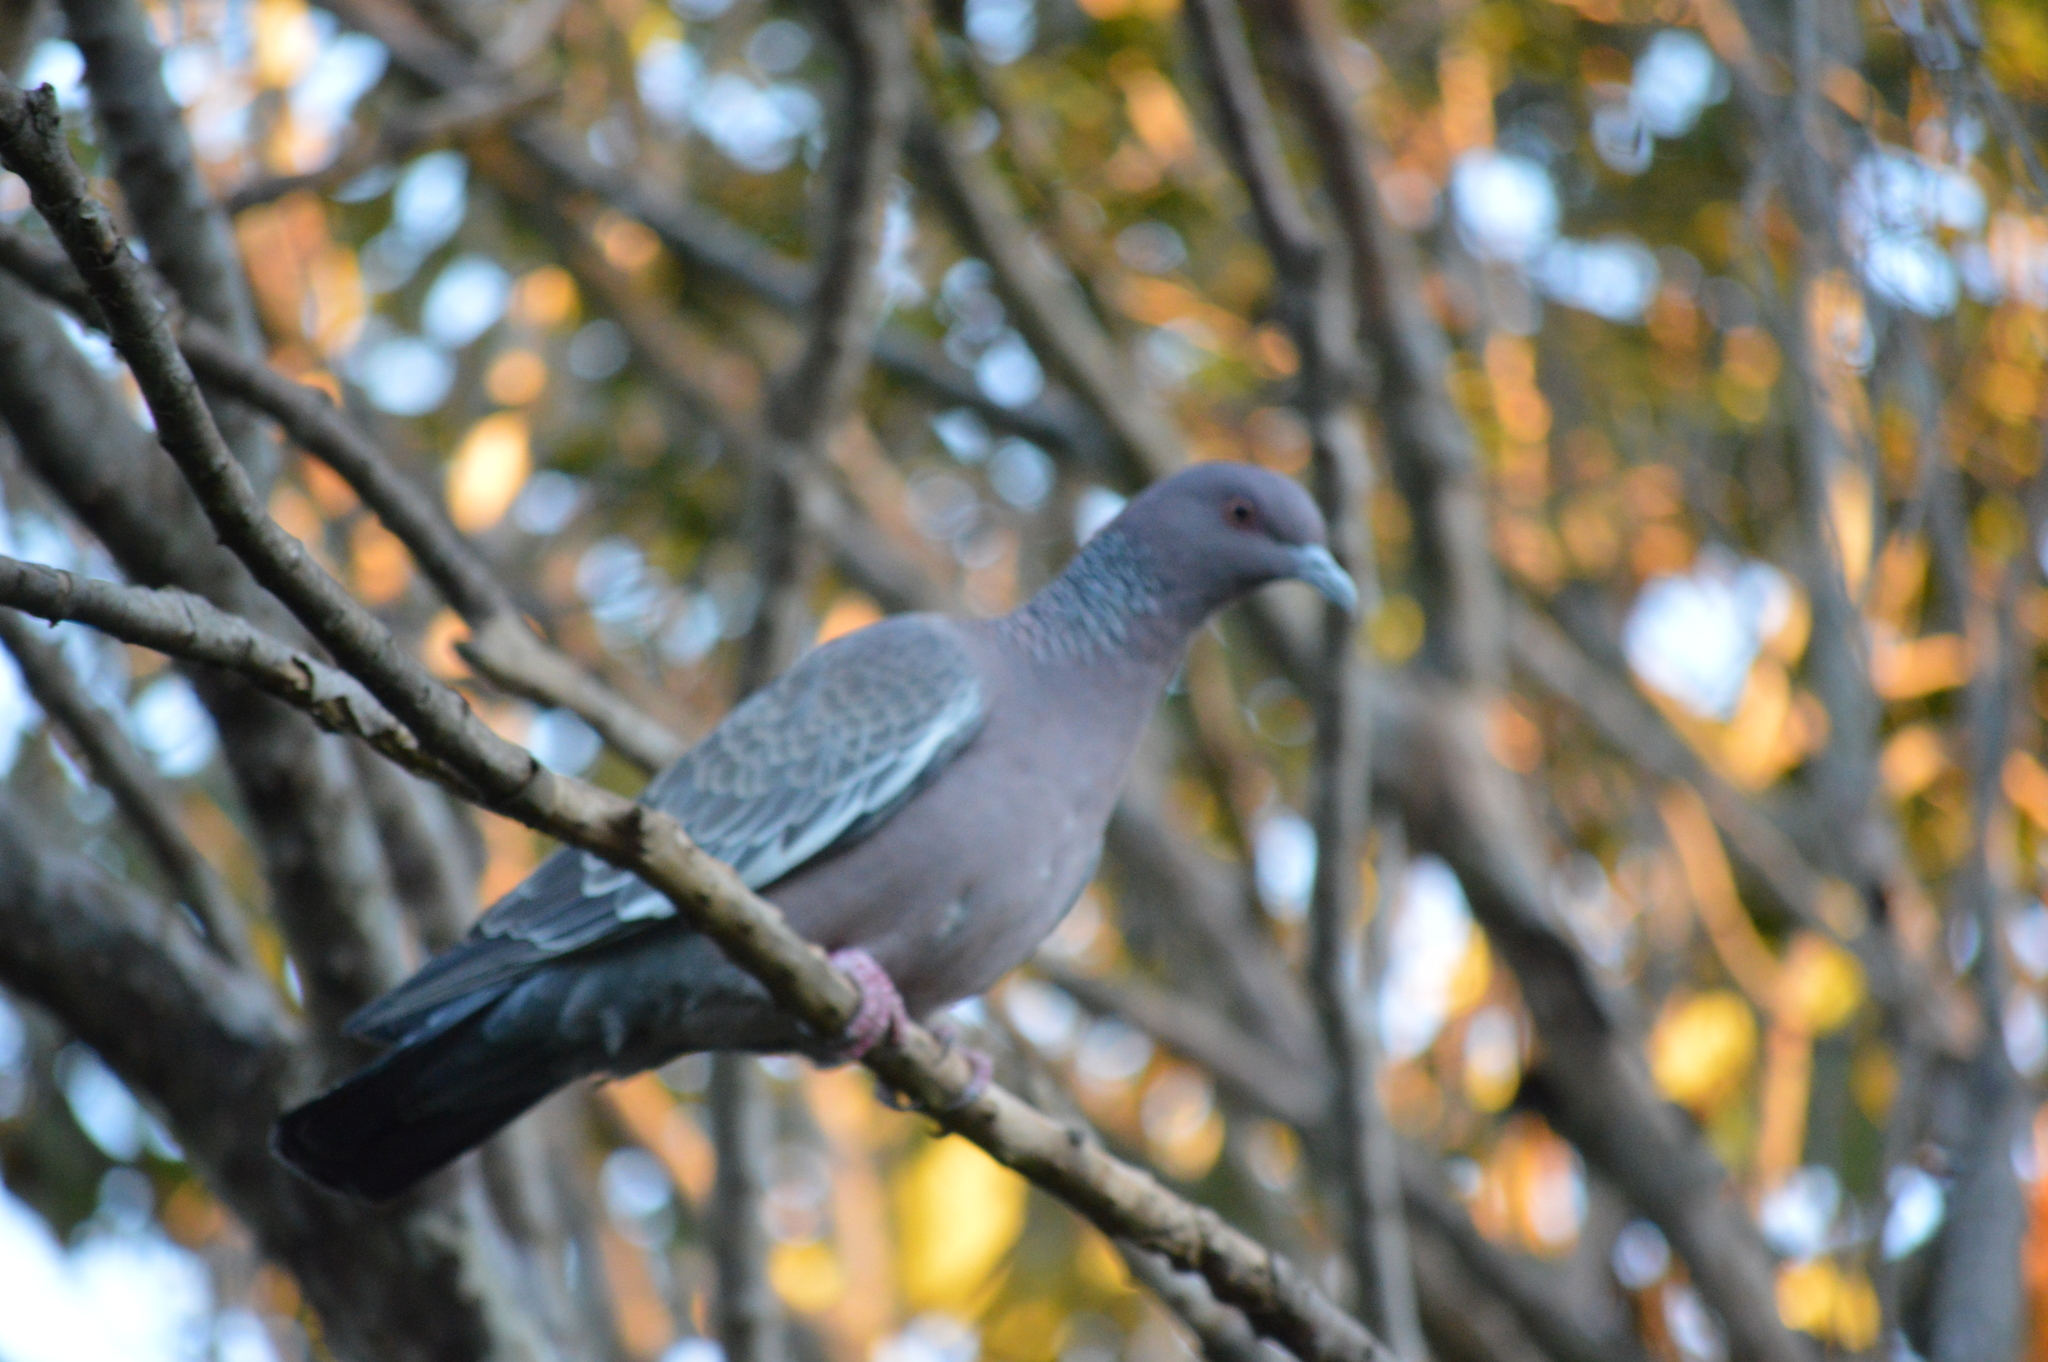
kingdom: Animalia
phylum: Chordata
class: Aves
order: Columbiformes
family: Columbidae
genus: Patagioenas
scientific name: Patagioenas picazuro
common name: Picazuro pigeon
